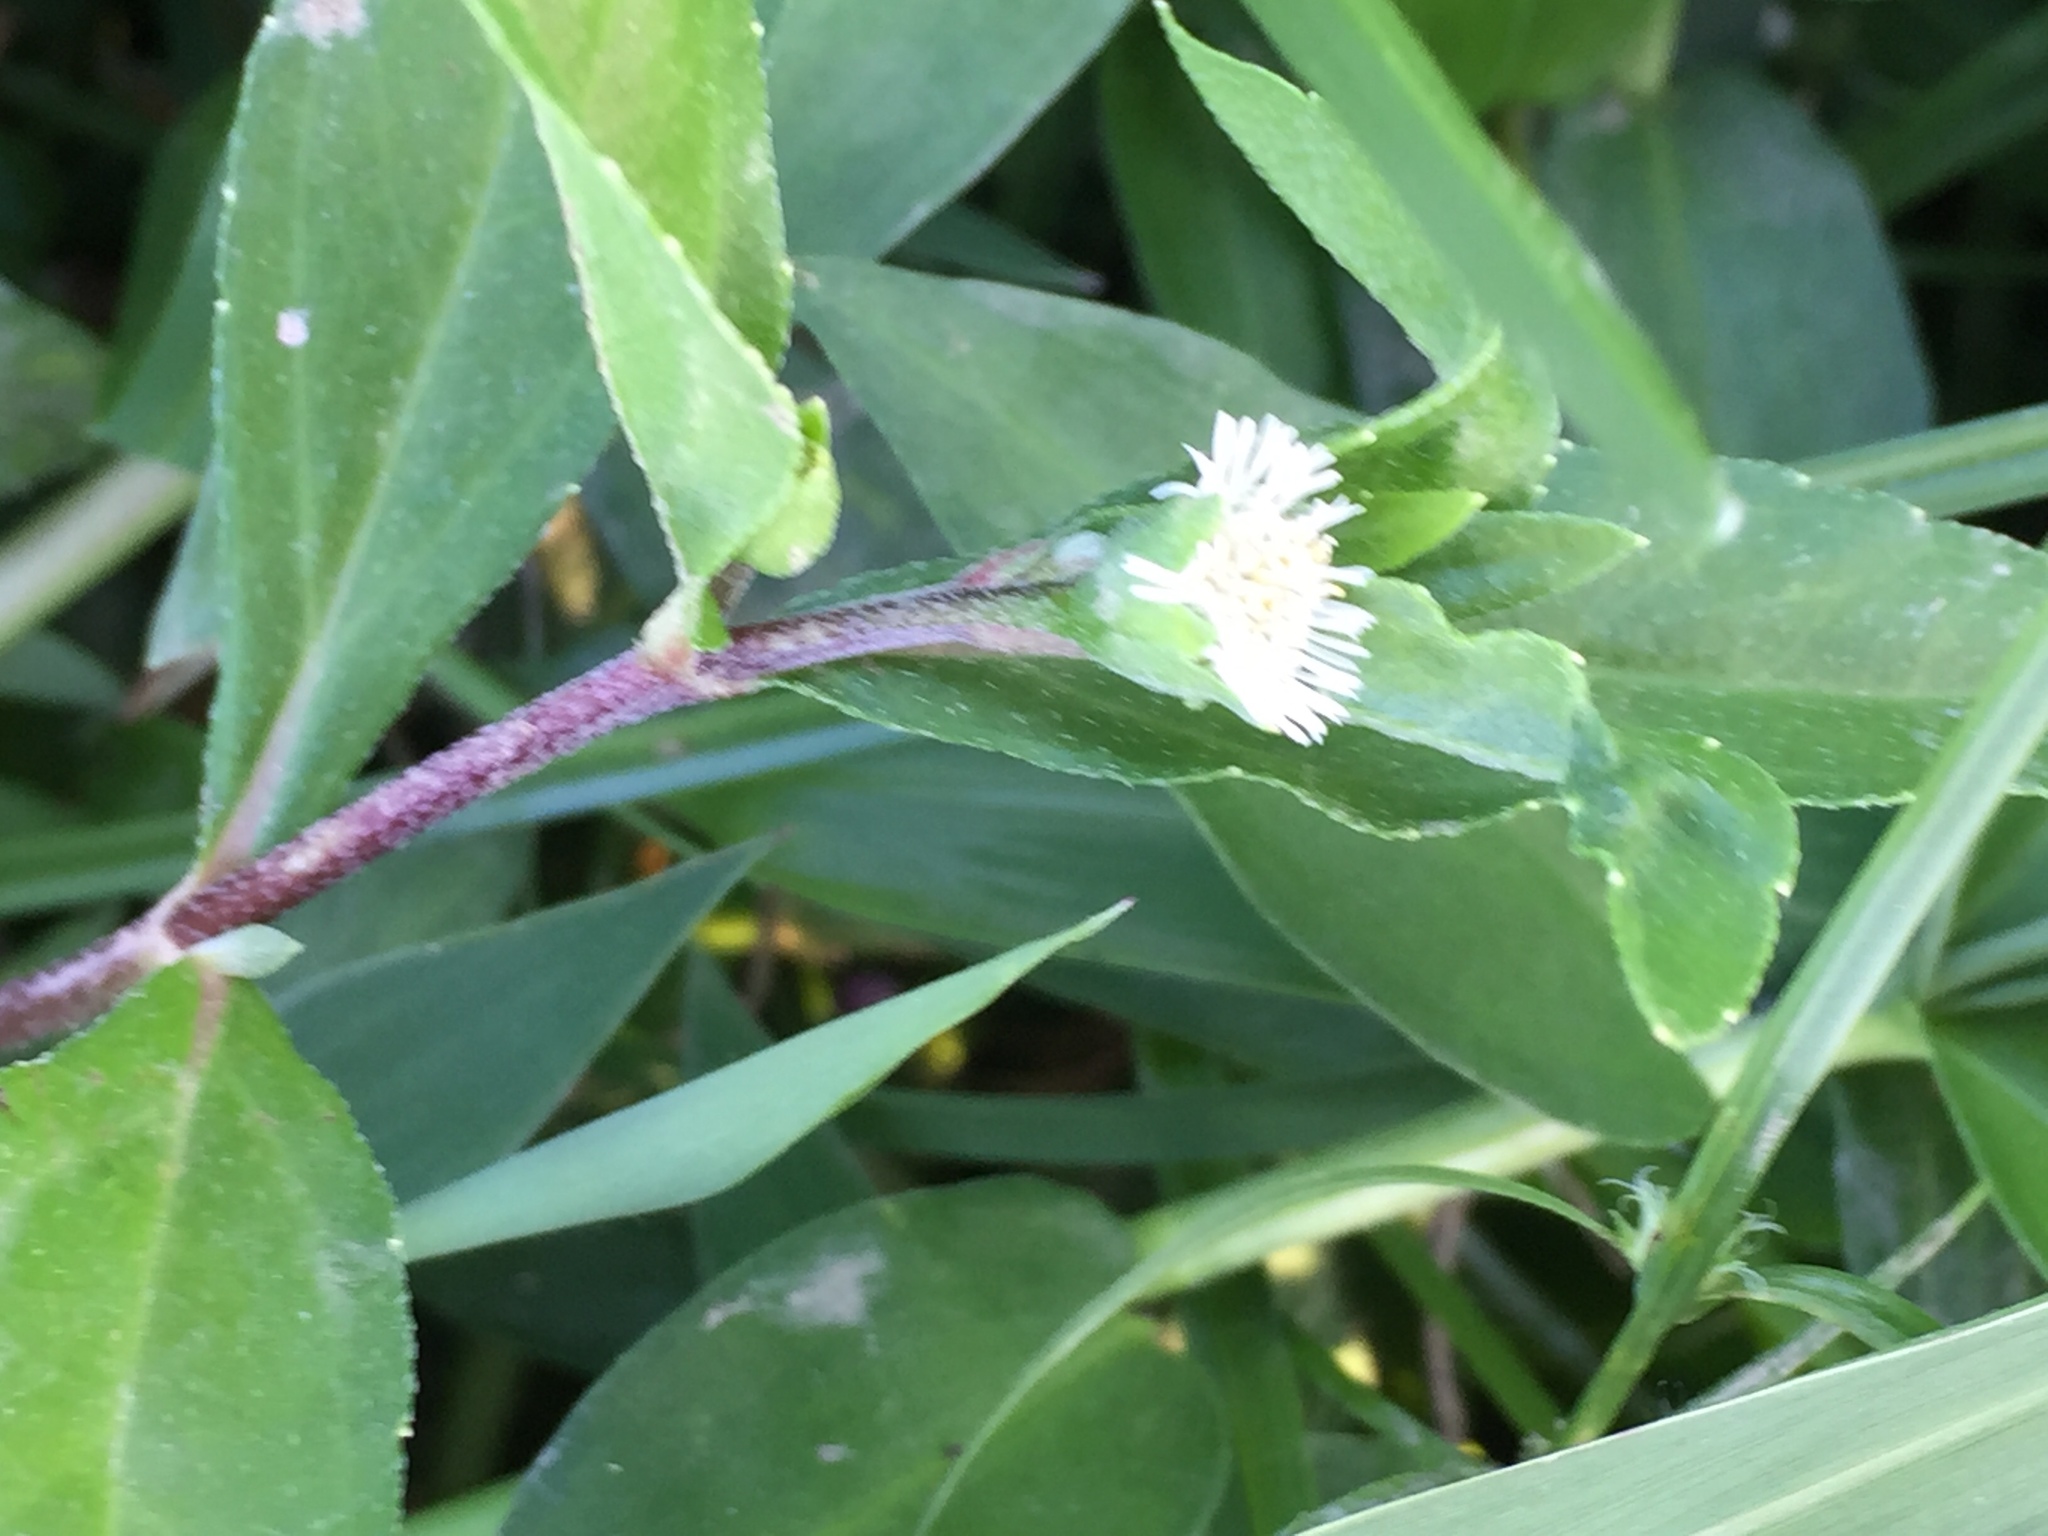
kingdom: Plantae
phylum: Tracheophyta
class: Magnoliopsida
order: Asterales
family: Asteraceae
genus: Eclipta
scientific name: Eclipta prostrata
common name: False daisy
